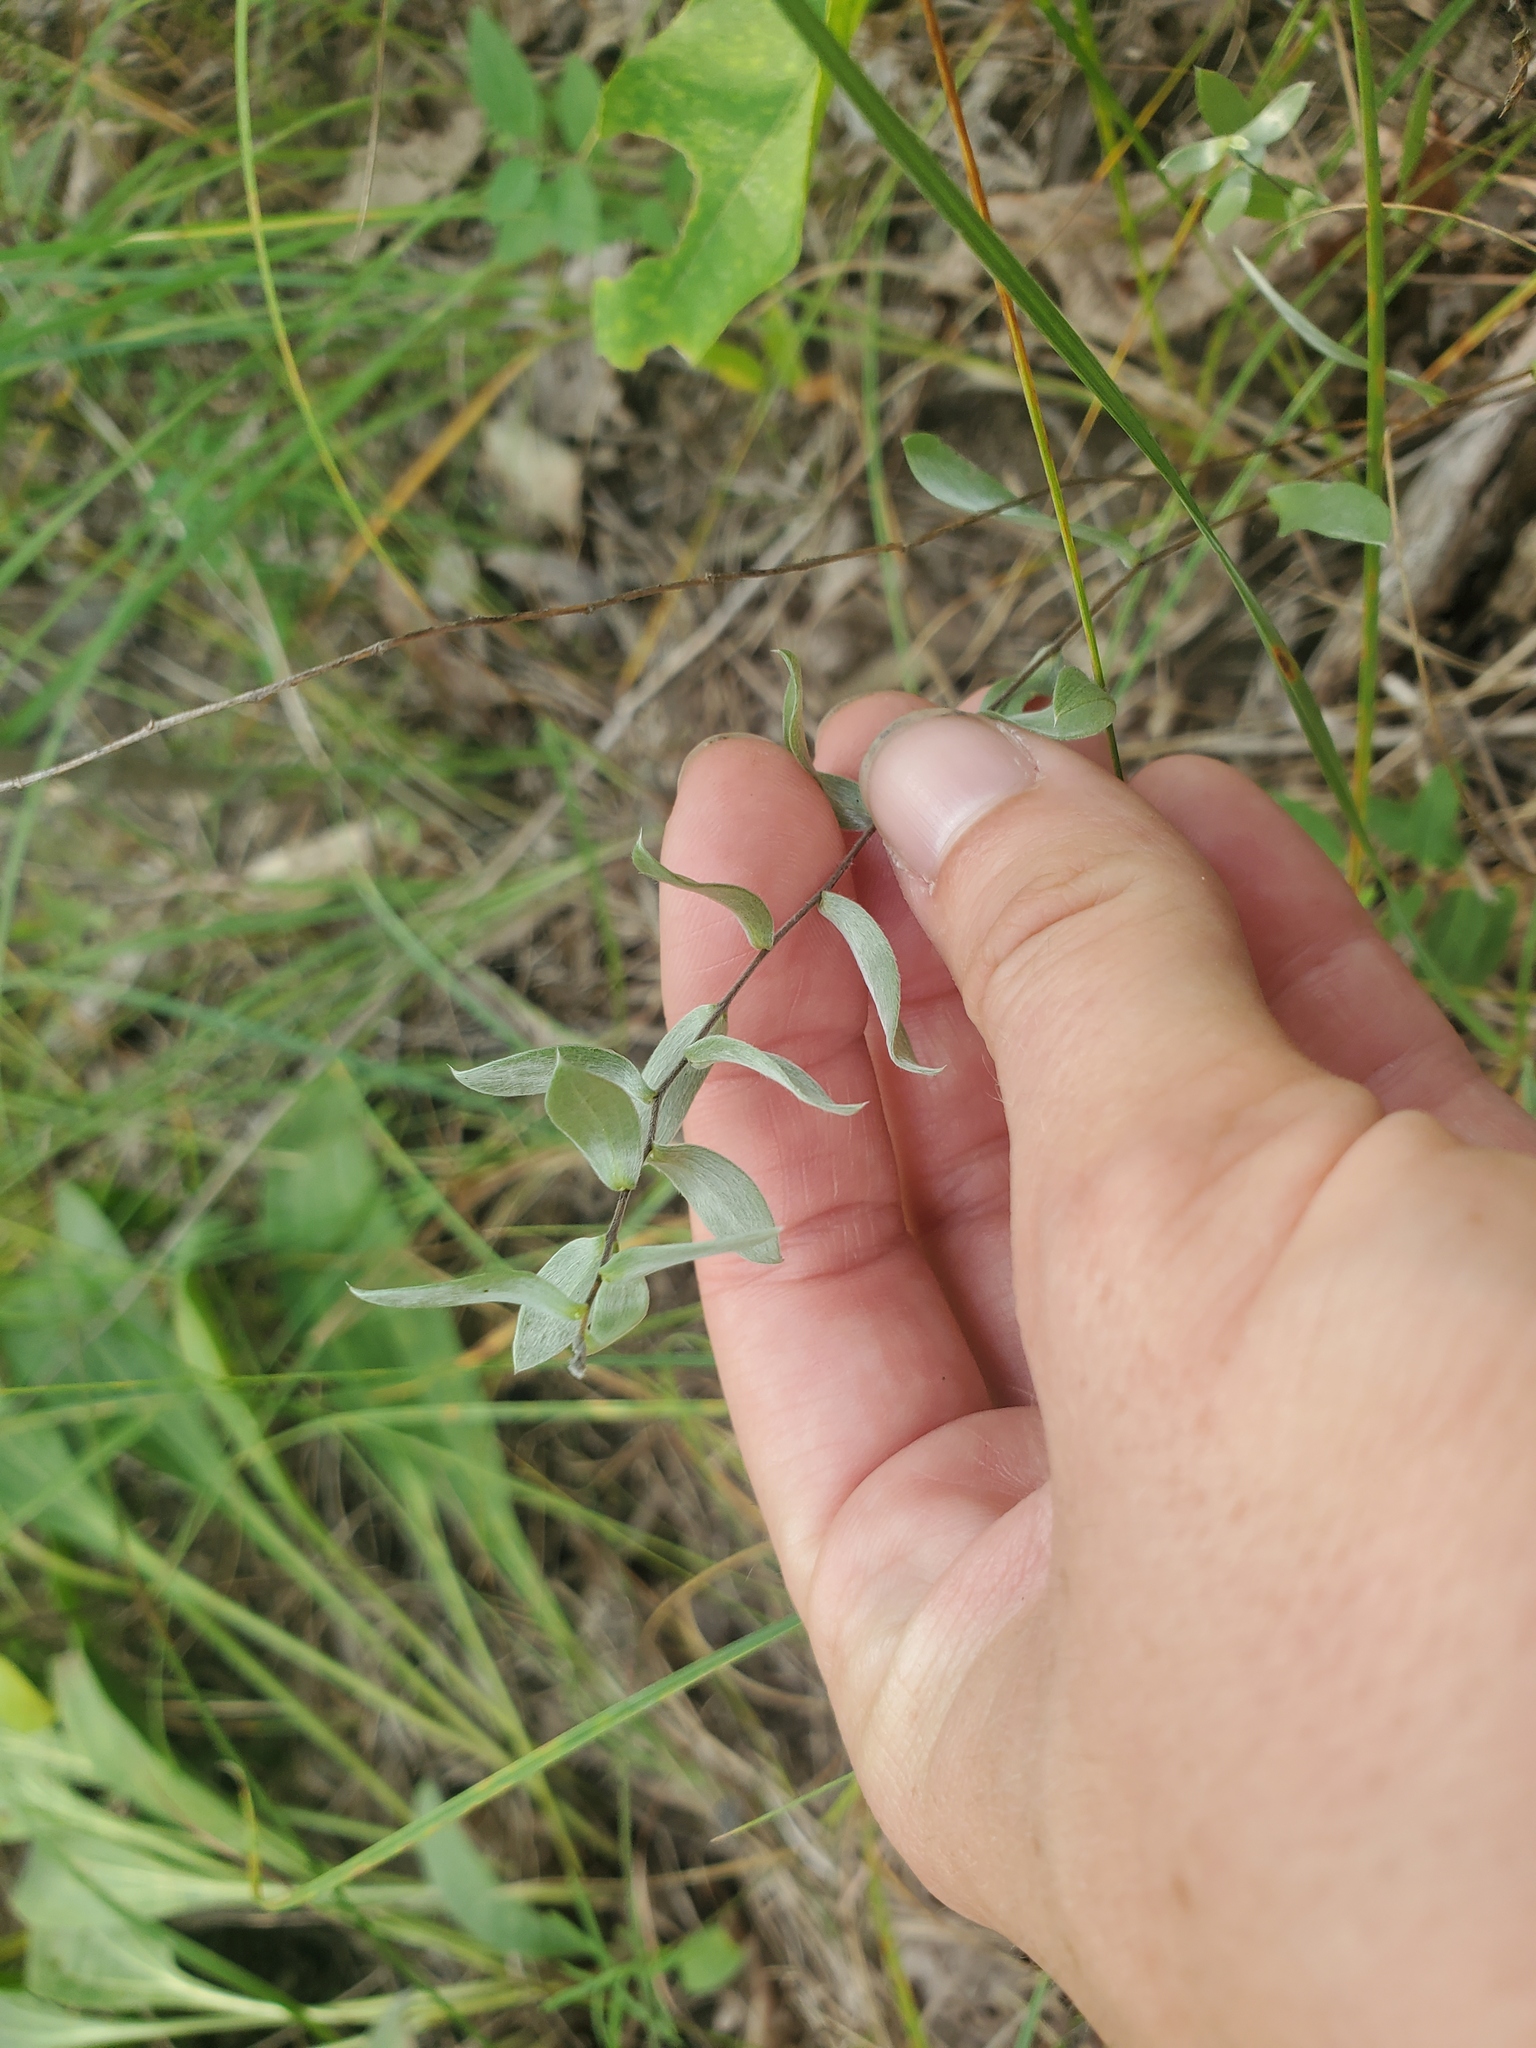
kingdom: Plantae
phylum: Tracheophyta
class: Magnoliopsida
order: Asterales
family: Asteraceae
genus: Symphyotrichum
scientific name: Symphyotrichum sericeum
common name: Silky aster
